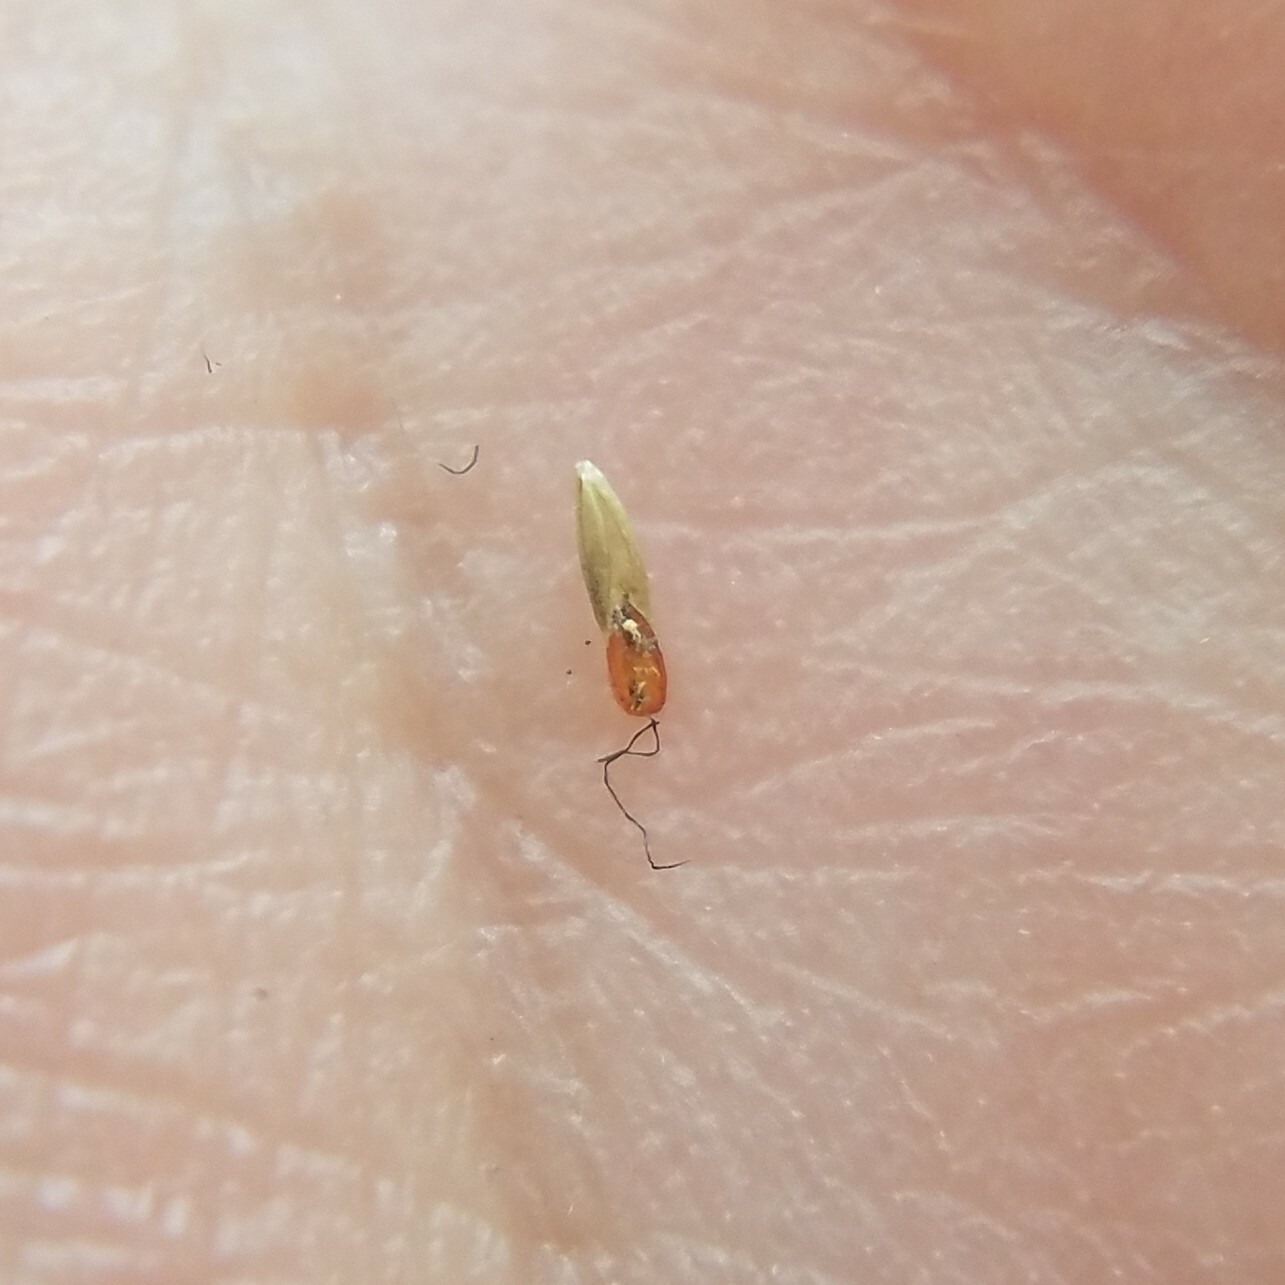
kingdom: Plantae
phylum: Tracheophyta
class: Liliopsida
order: Poales
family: Poaceae
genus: Sporobolus
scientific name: Sporobolus indicus
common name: Smut grass
